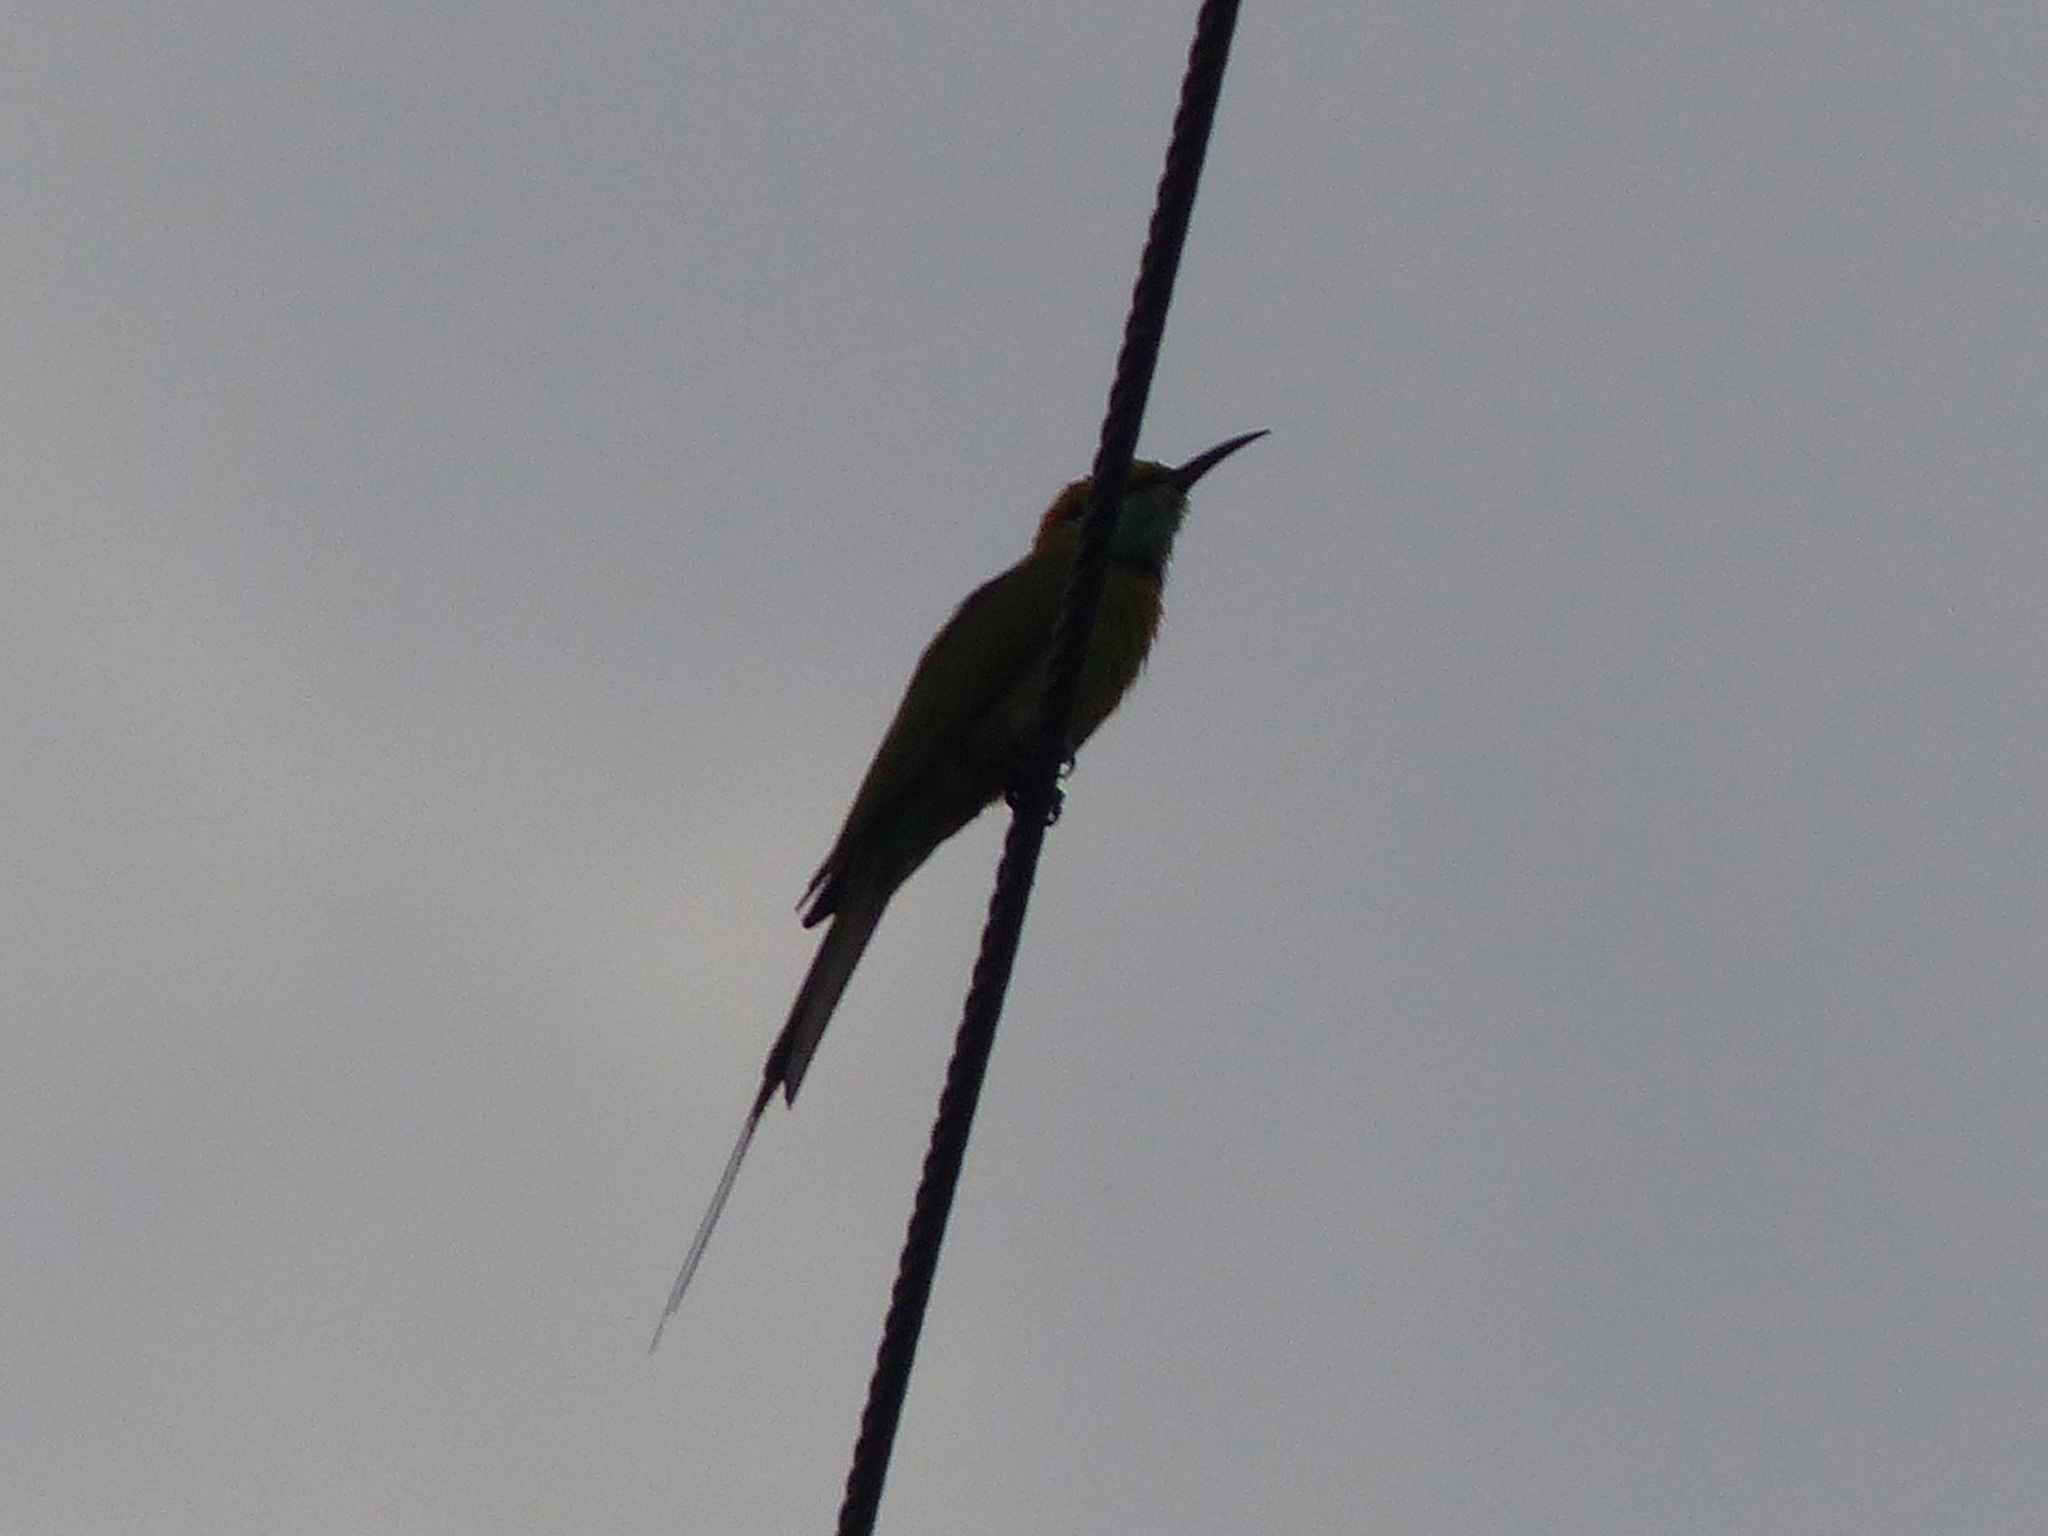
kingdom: Animalia
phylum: Chordata
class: Aves
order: Coraciiformes
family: Meropidae
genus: Merops
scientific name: Merops orientalis
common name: Green bee-eater
